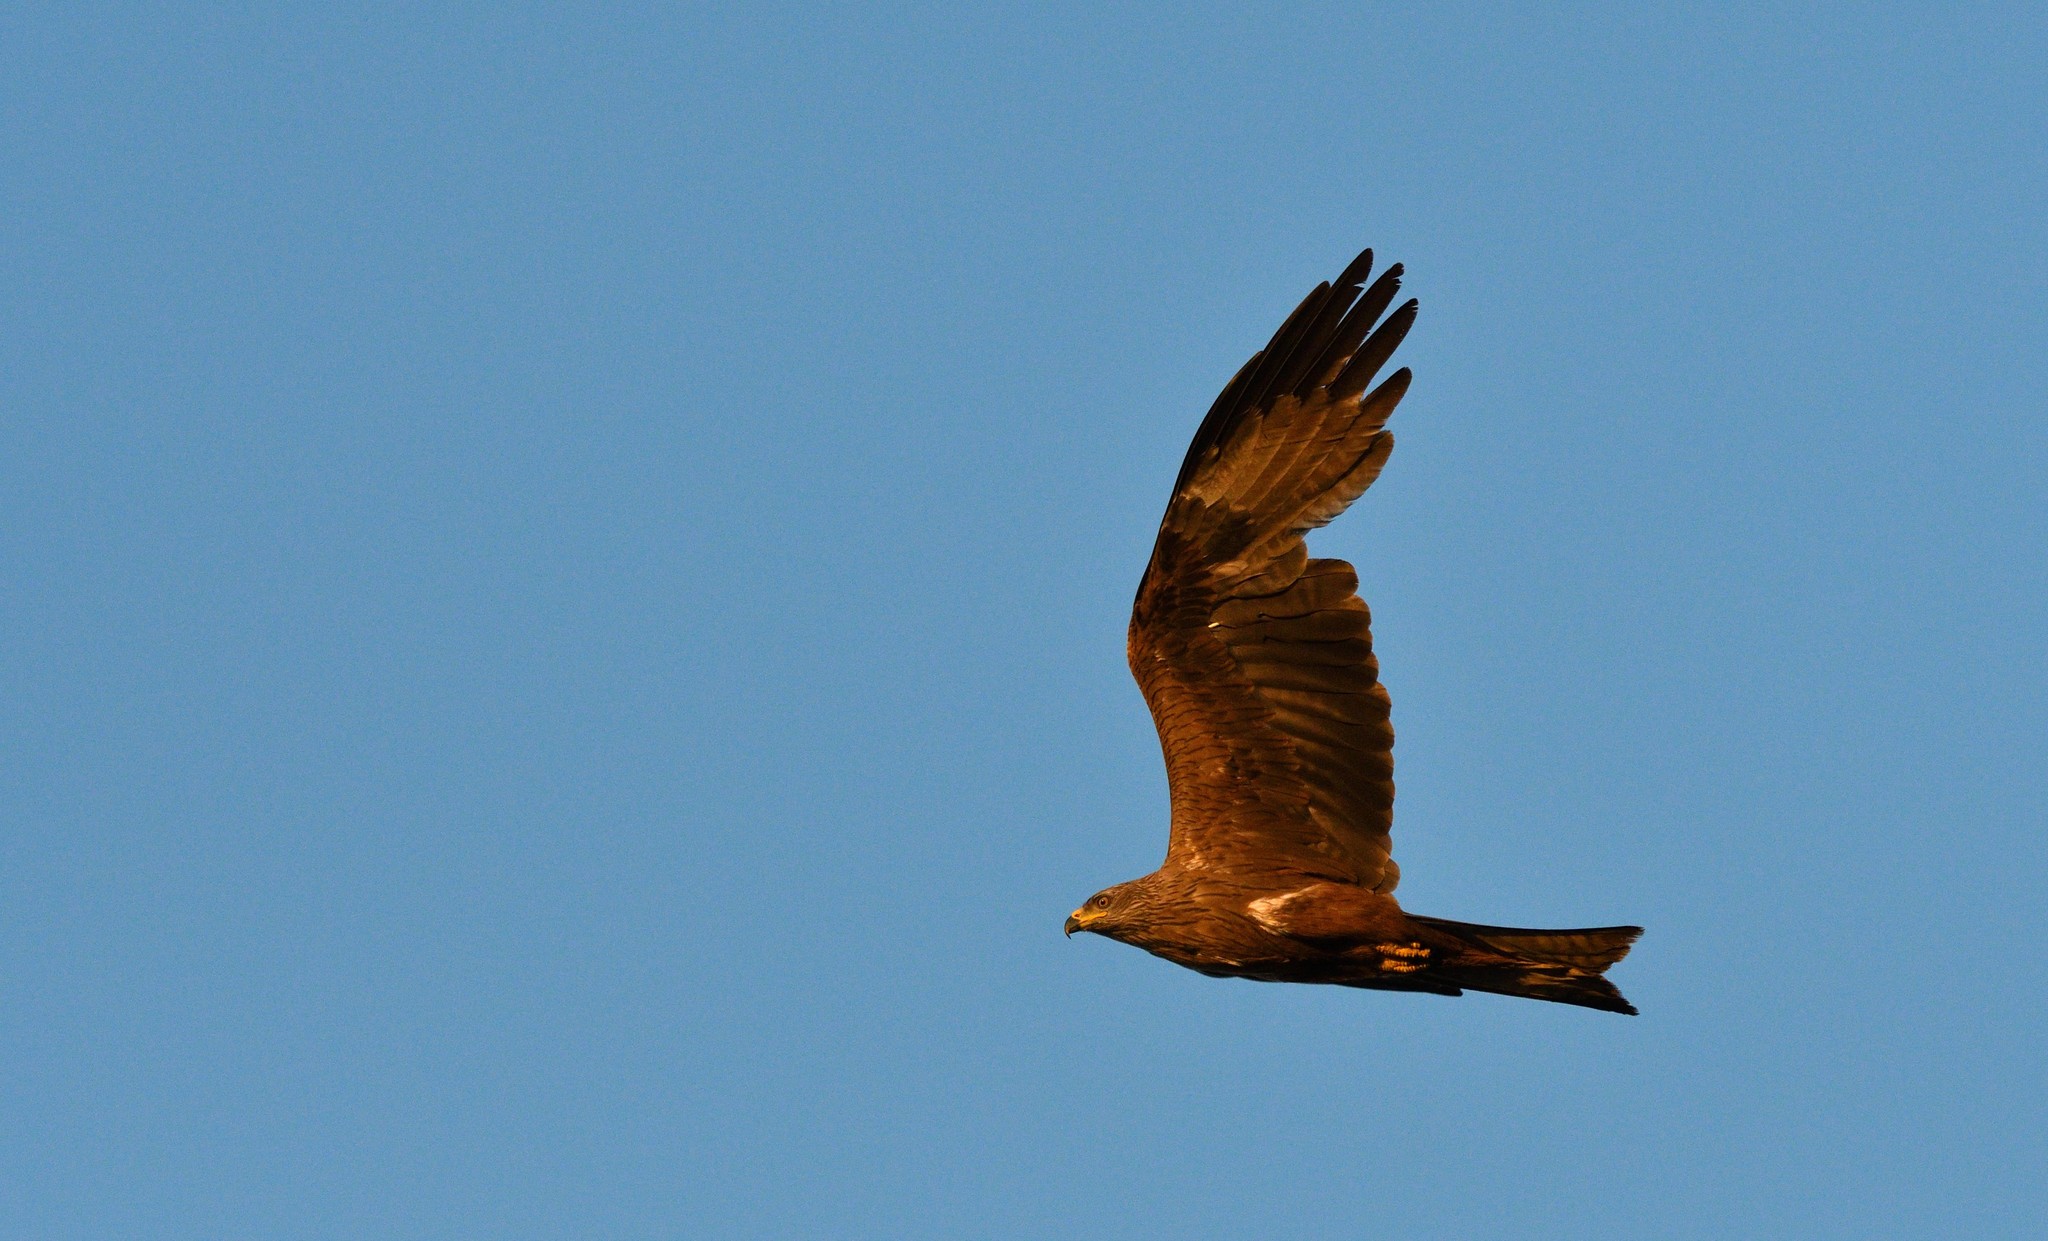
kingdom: Animalia
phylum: Chordata
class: Aves
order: Accipitriformes
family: Accipitridae
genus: Milvus
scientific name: Milvus migrans
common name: Black kite
